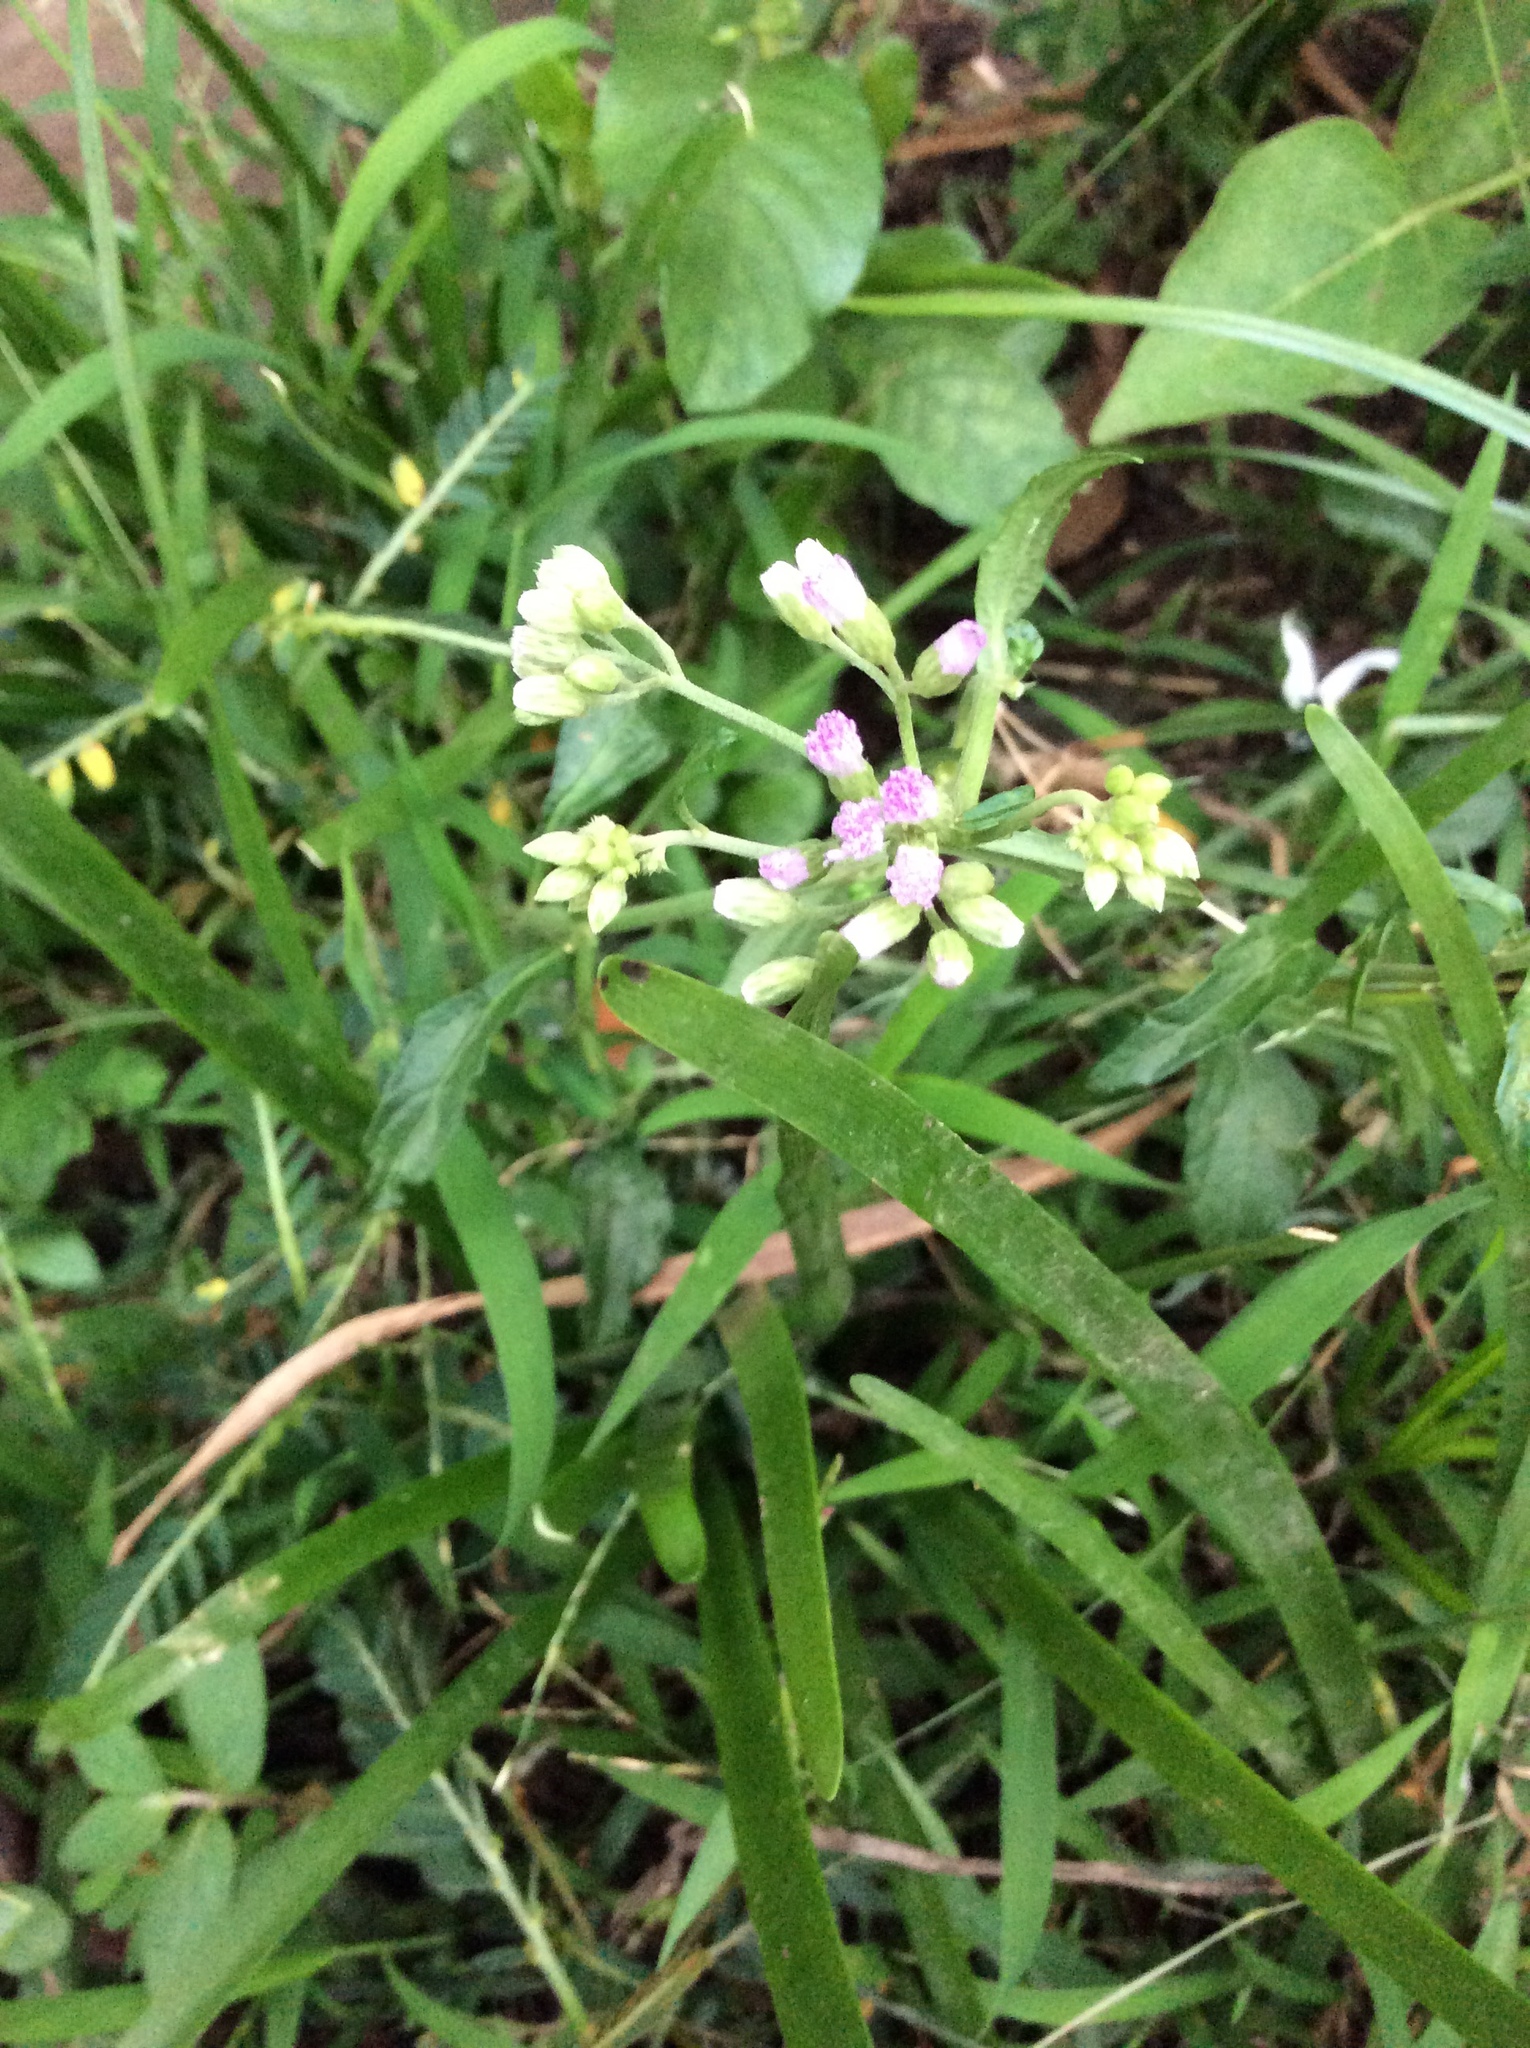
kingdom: Plantae
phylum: Tracheophyta
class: Magnoliopsida
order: Asterales
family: Asteraceae
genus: Cyanthillium
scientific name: Cyanthillium cinereum
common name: Little ironweed
